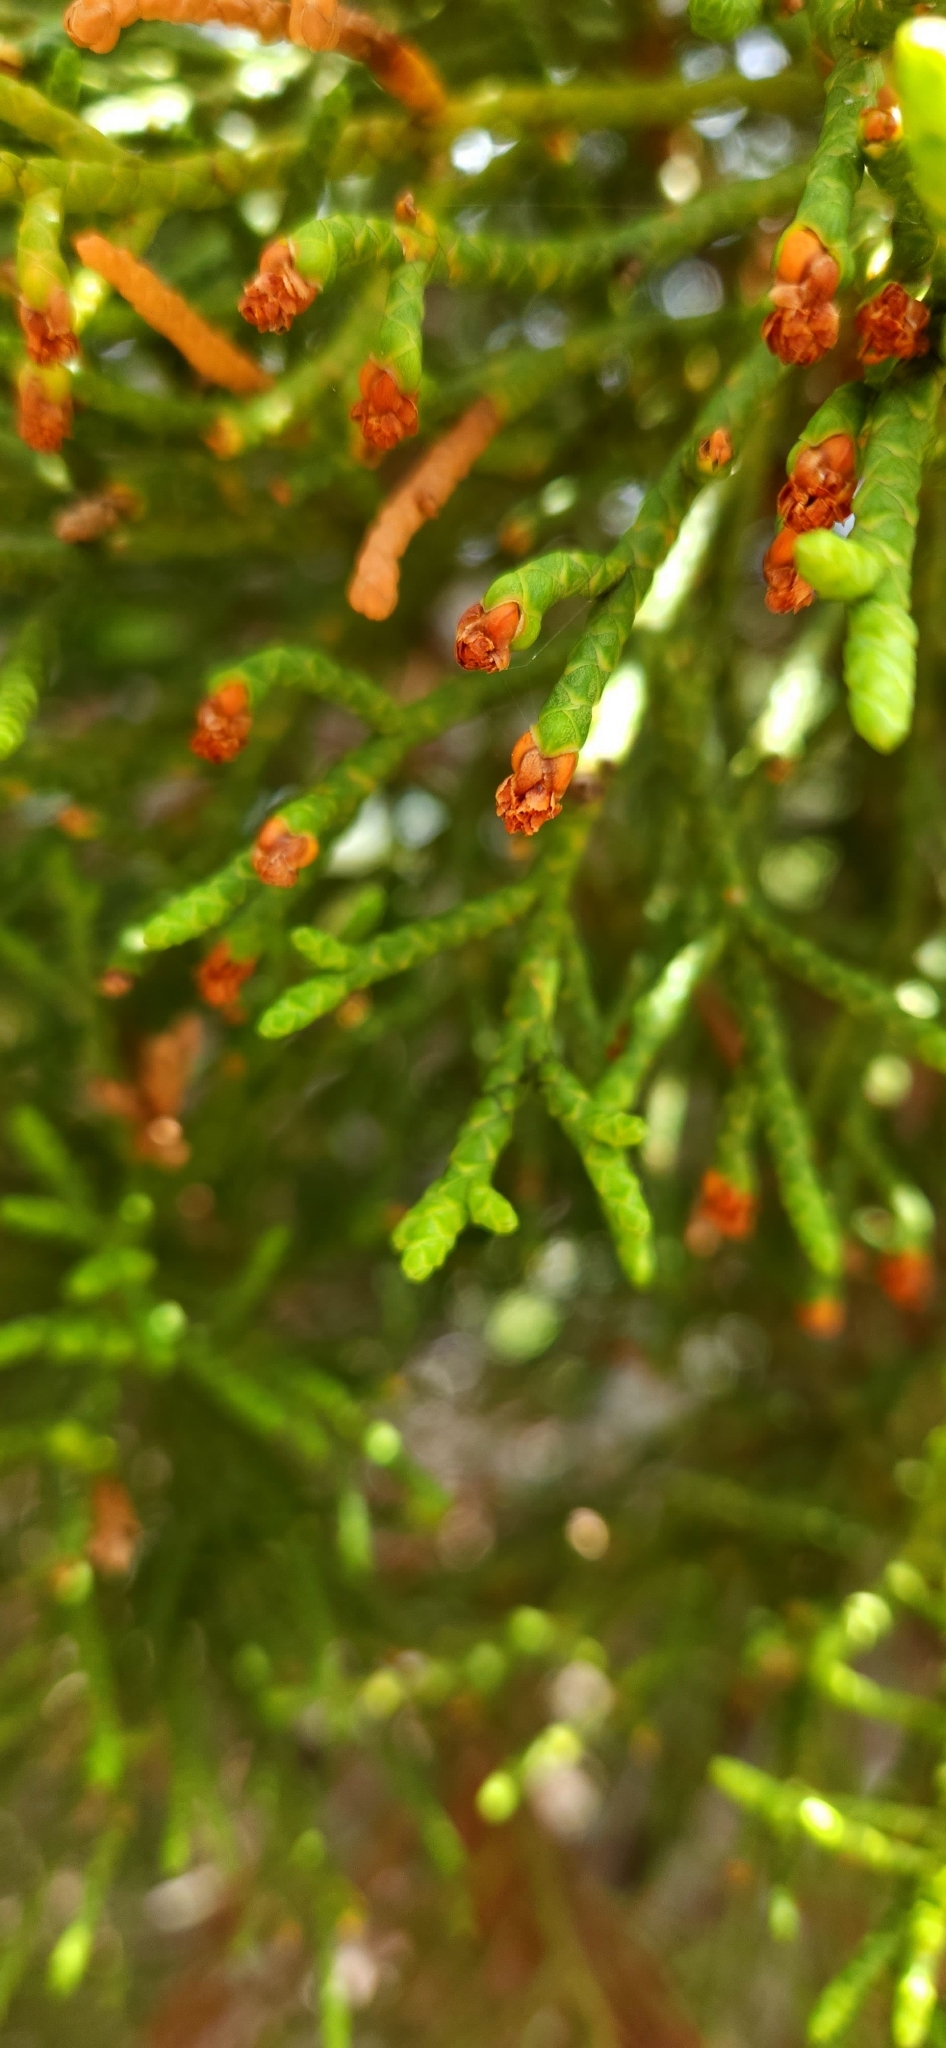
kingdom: Plantae
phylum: Tracheophyta
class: Pinopsida
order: Pinales
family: Cupressaceae
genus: Athrotaxis
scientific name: Athrotaxis cupressoides
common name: Tasmanian pencil pine
